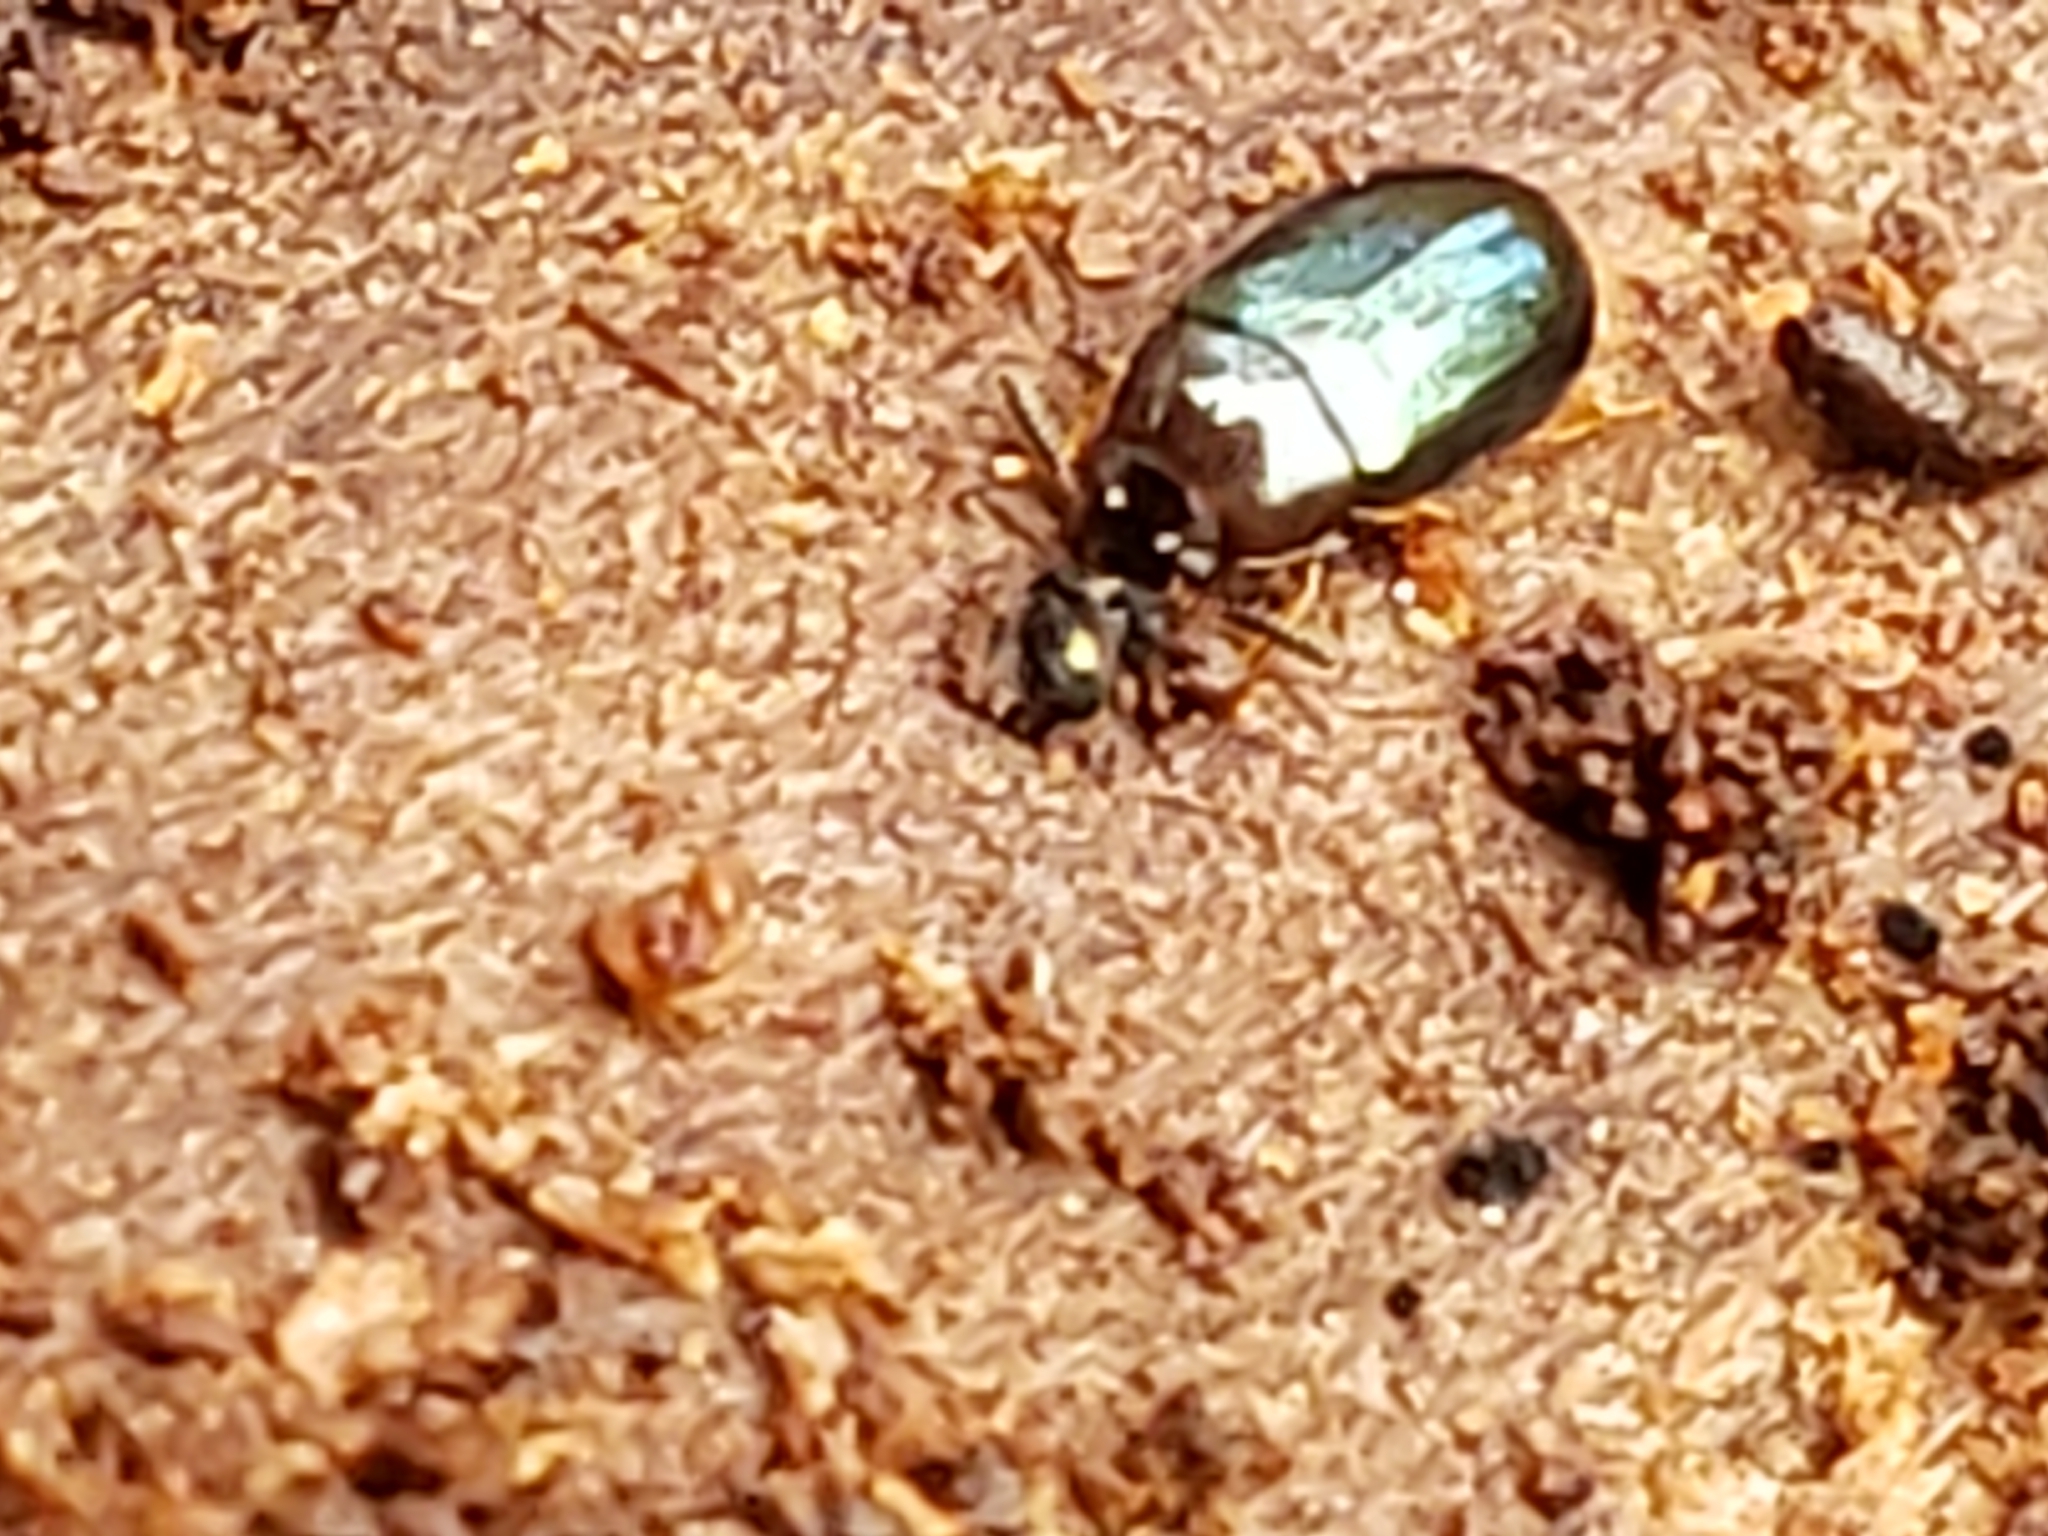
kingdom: Animalia
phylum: Arthropoda
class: Insecta
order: Coleoptera
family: Tenebrionidae
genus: Neomida
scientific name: Neomida bicornis
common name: Two-horned darkling beetle
